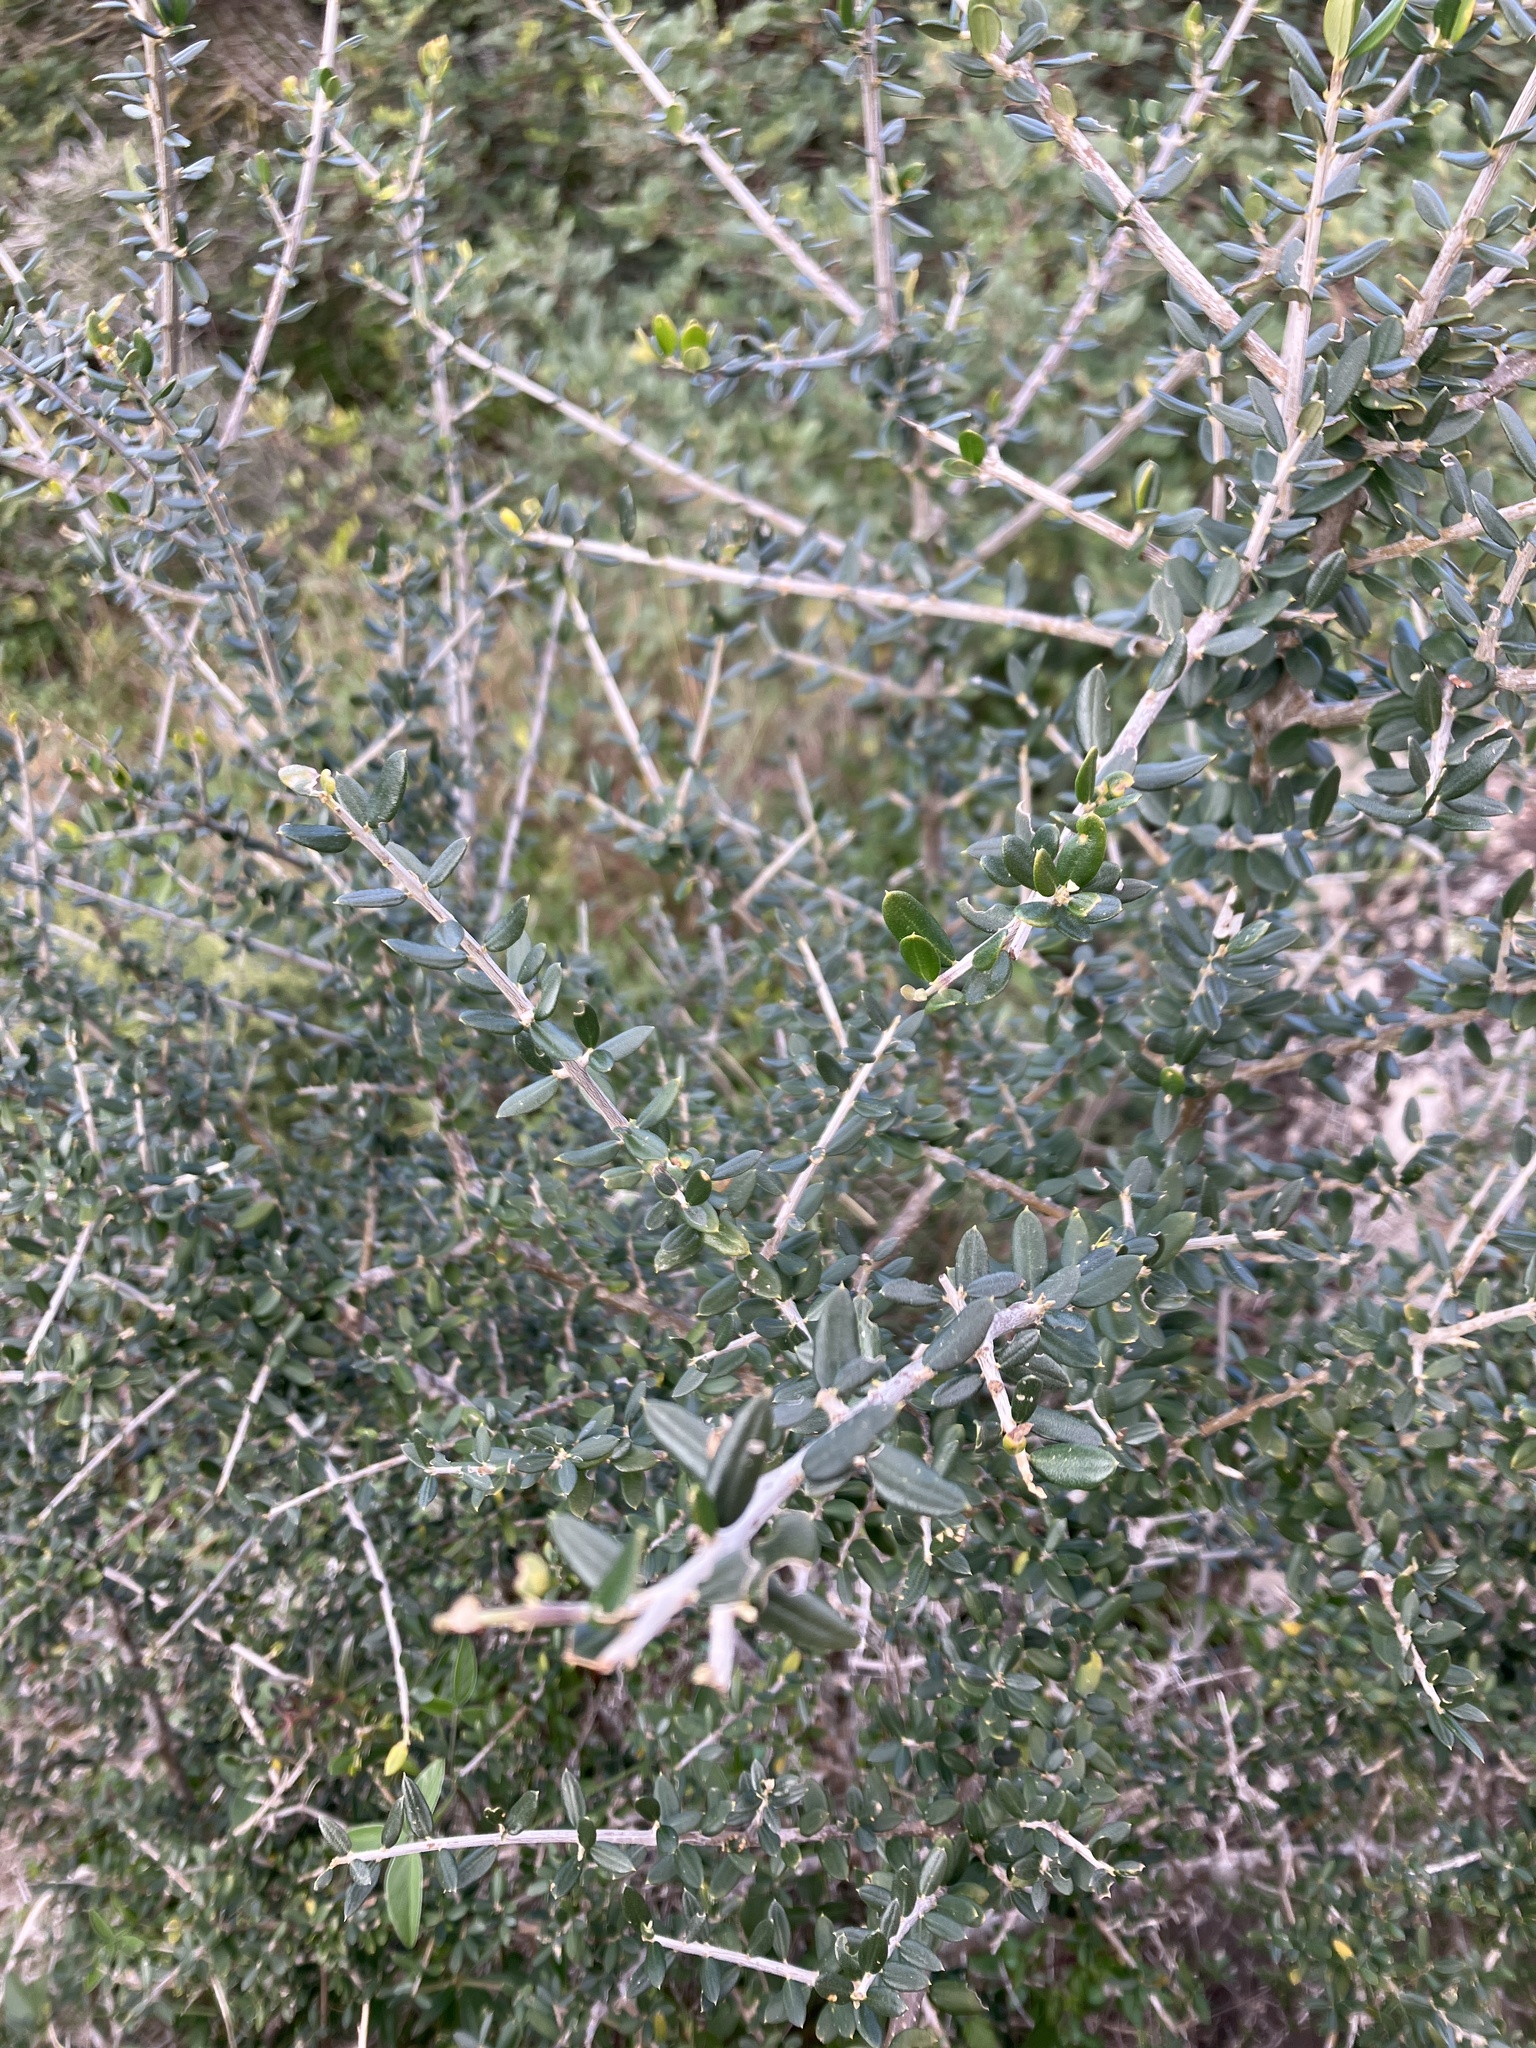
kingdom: Plantae
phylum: Tracheophyta
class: Magnoliopsida
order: Lamiales
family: Oleaceae
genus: Olea
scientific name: Olea europaea
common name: Olive
